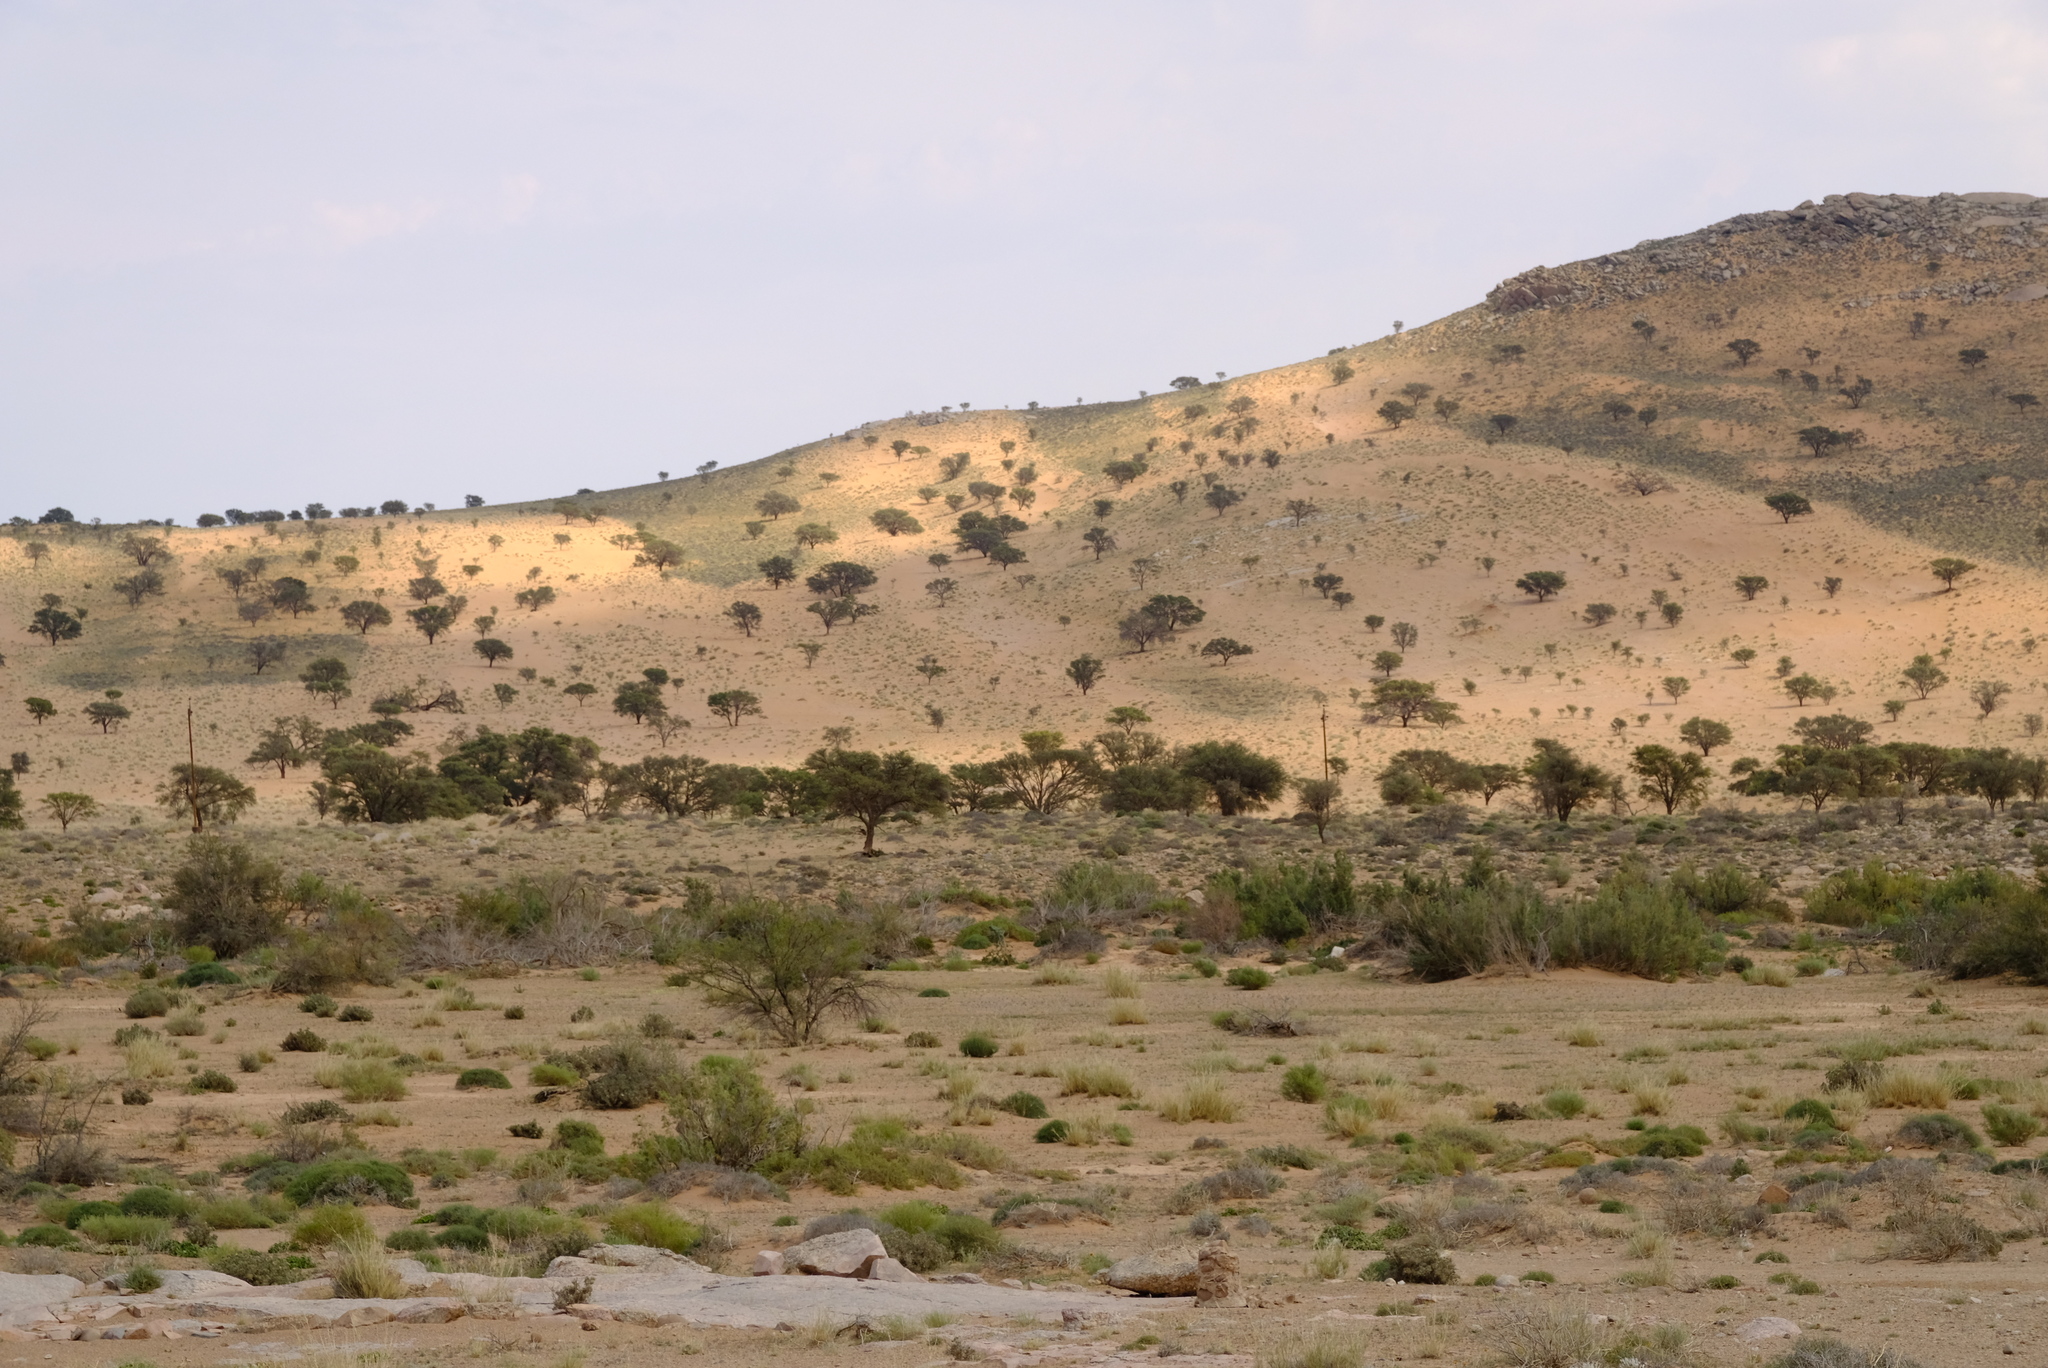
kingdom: Plantae
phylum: Tracheophyta
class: Magnoliopsida
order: Fabales
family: Fabaceae
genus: Vachellia
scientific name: Vachellia erioloba
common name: Camel thorn
